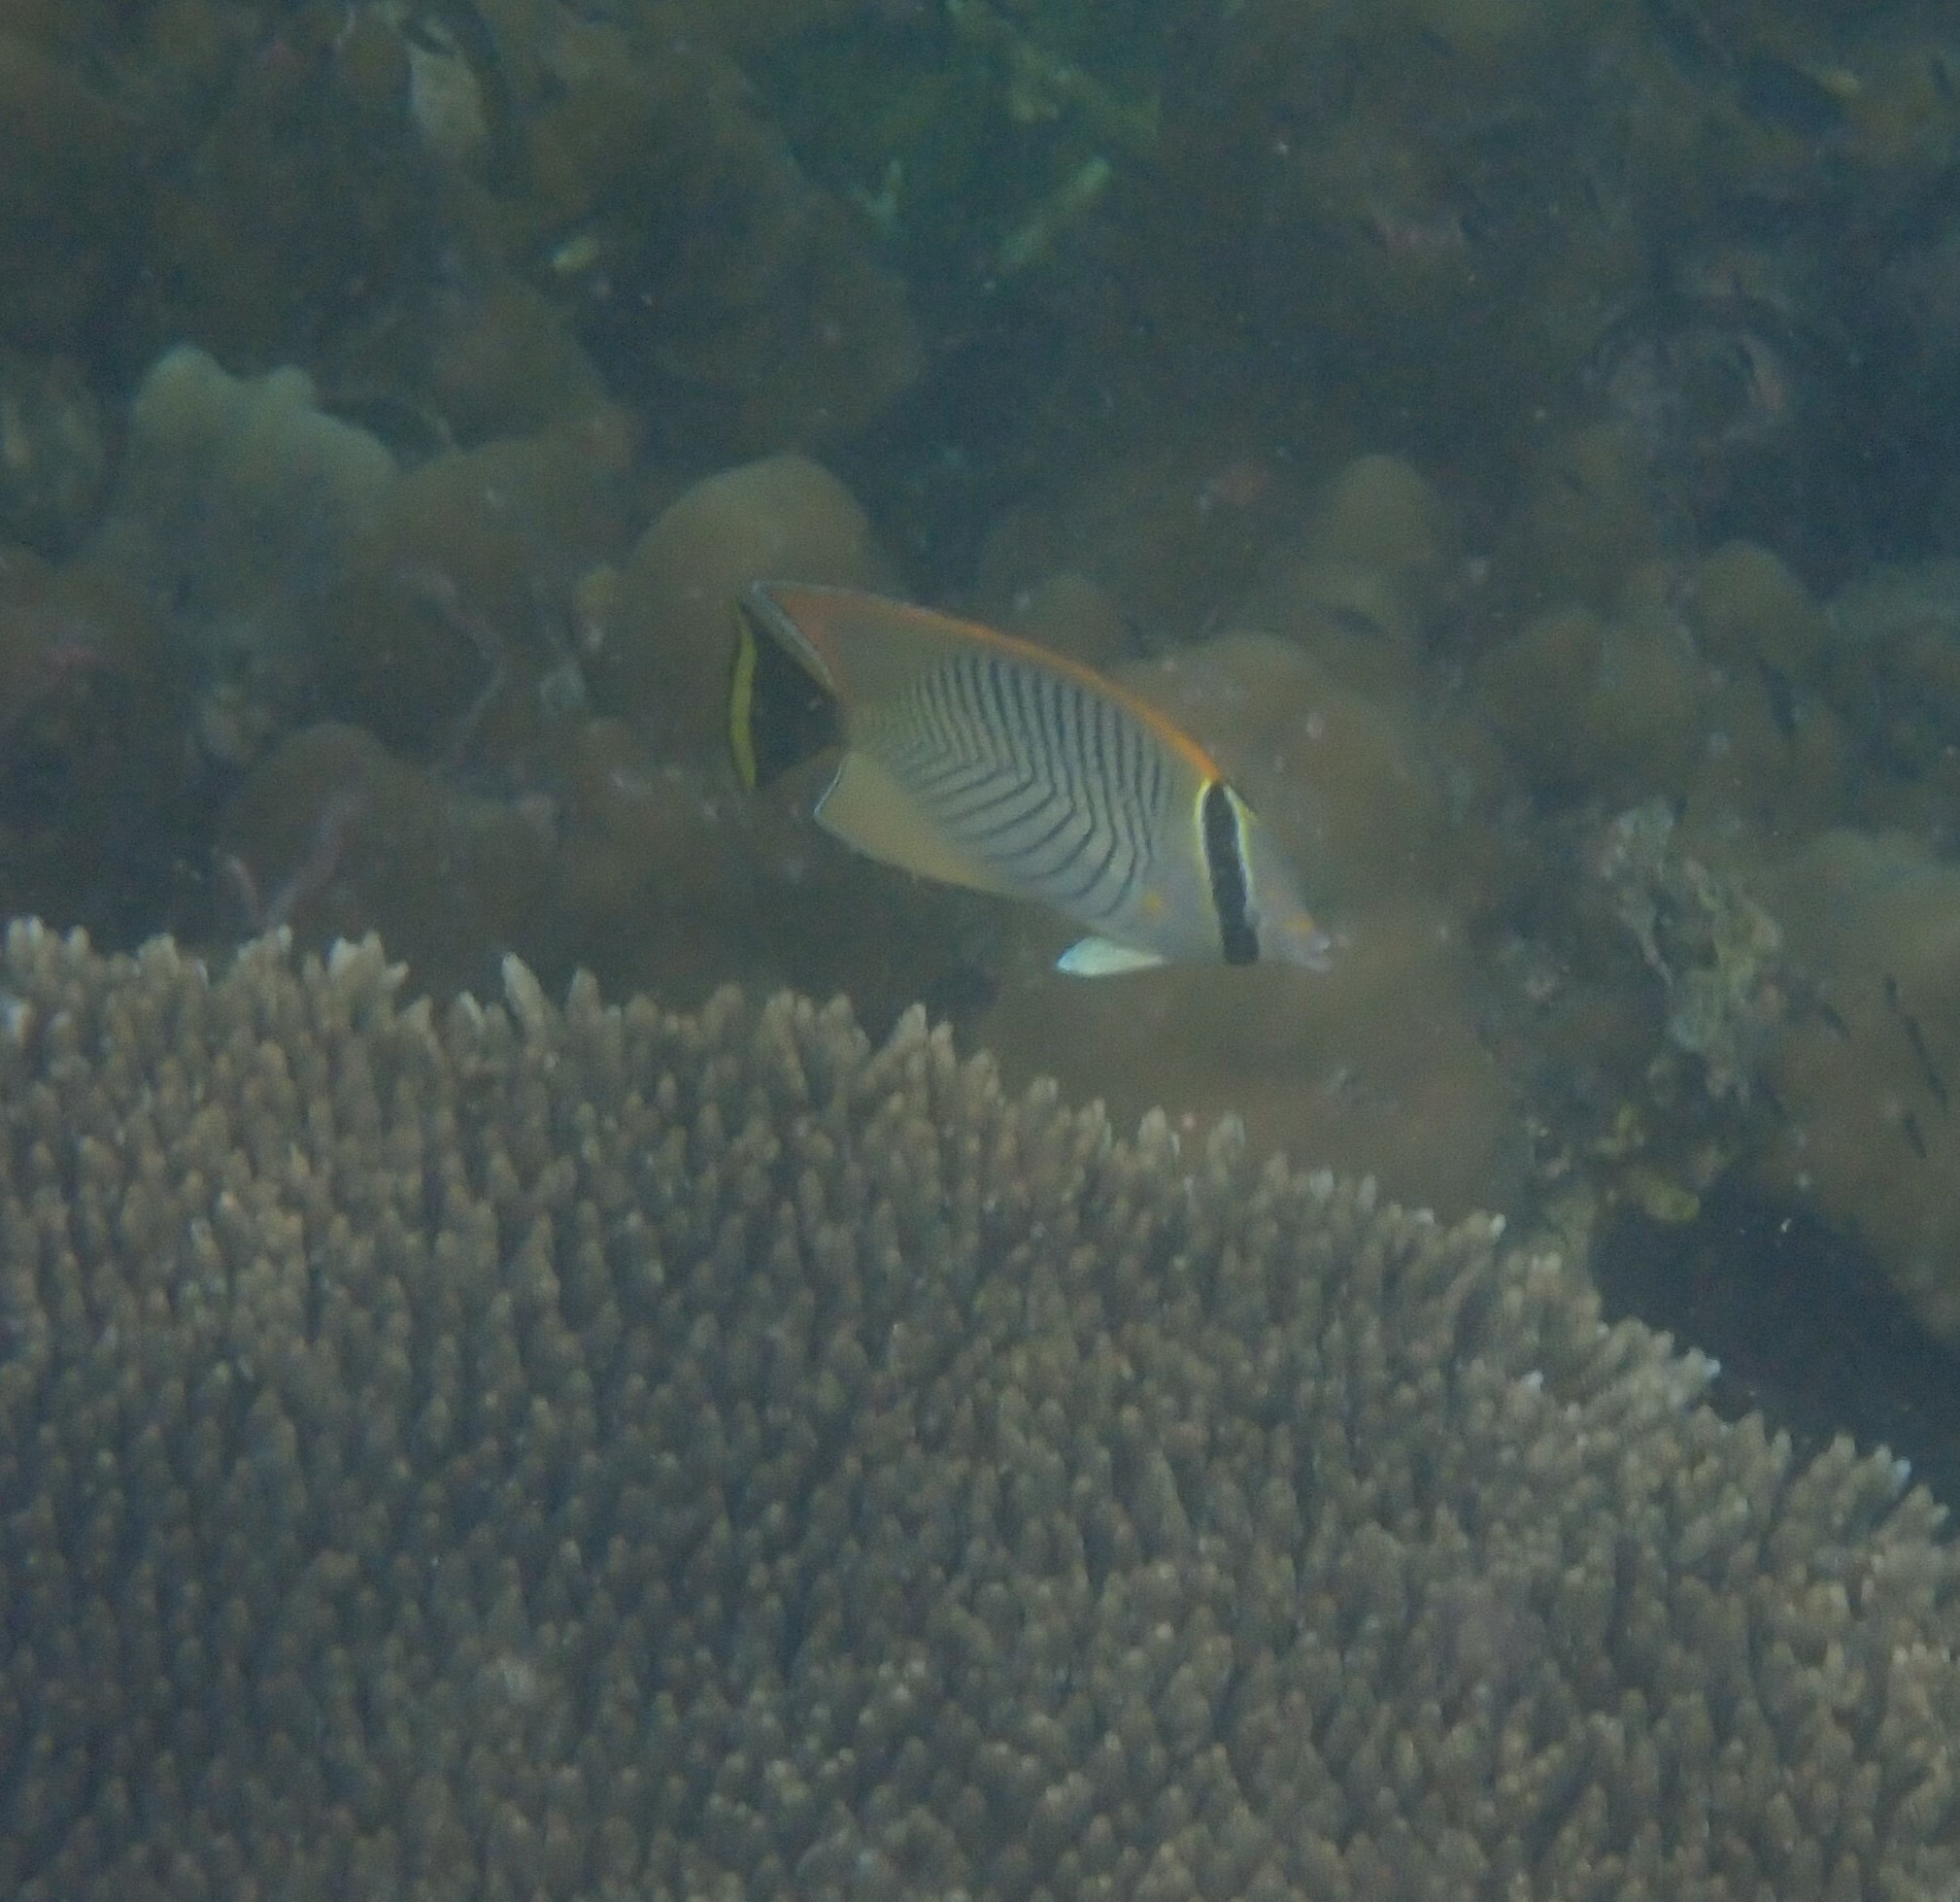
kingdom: Animalia
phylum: Chordata
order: Perciformes
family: Chaetodontidae
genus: Chaetodon
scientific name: Chaetodon trifascialis
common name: Chevroned butterflyfish
